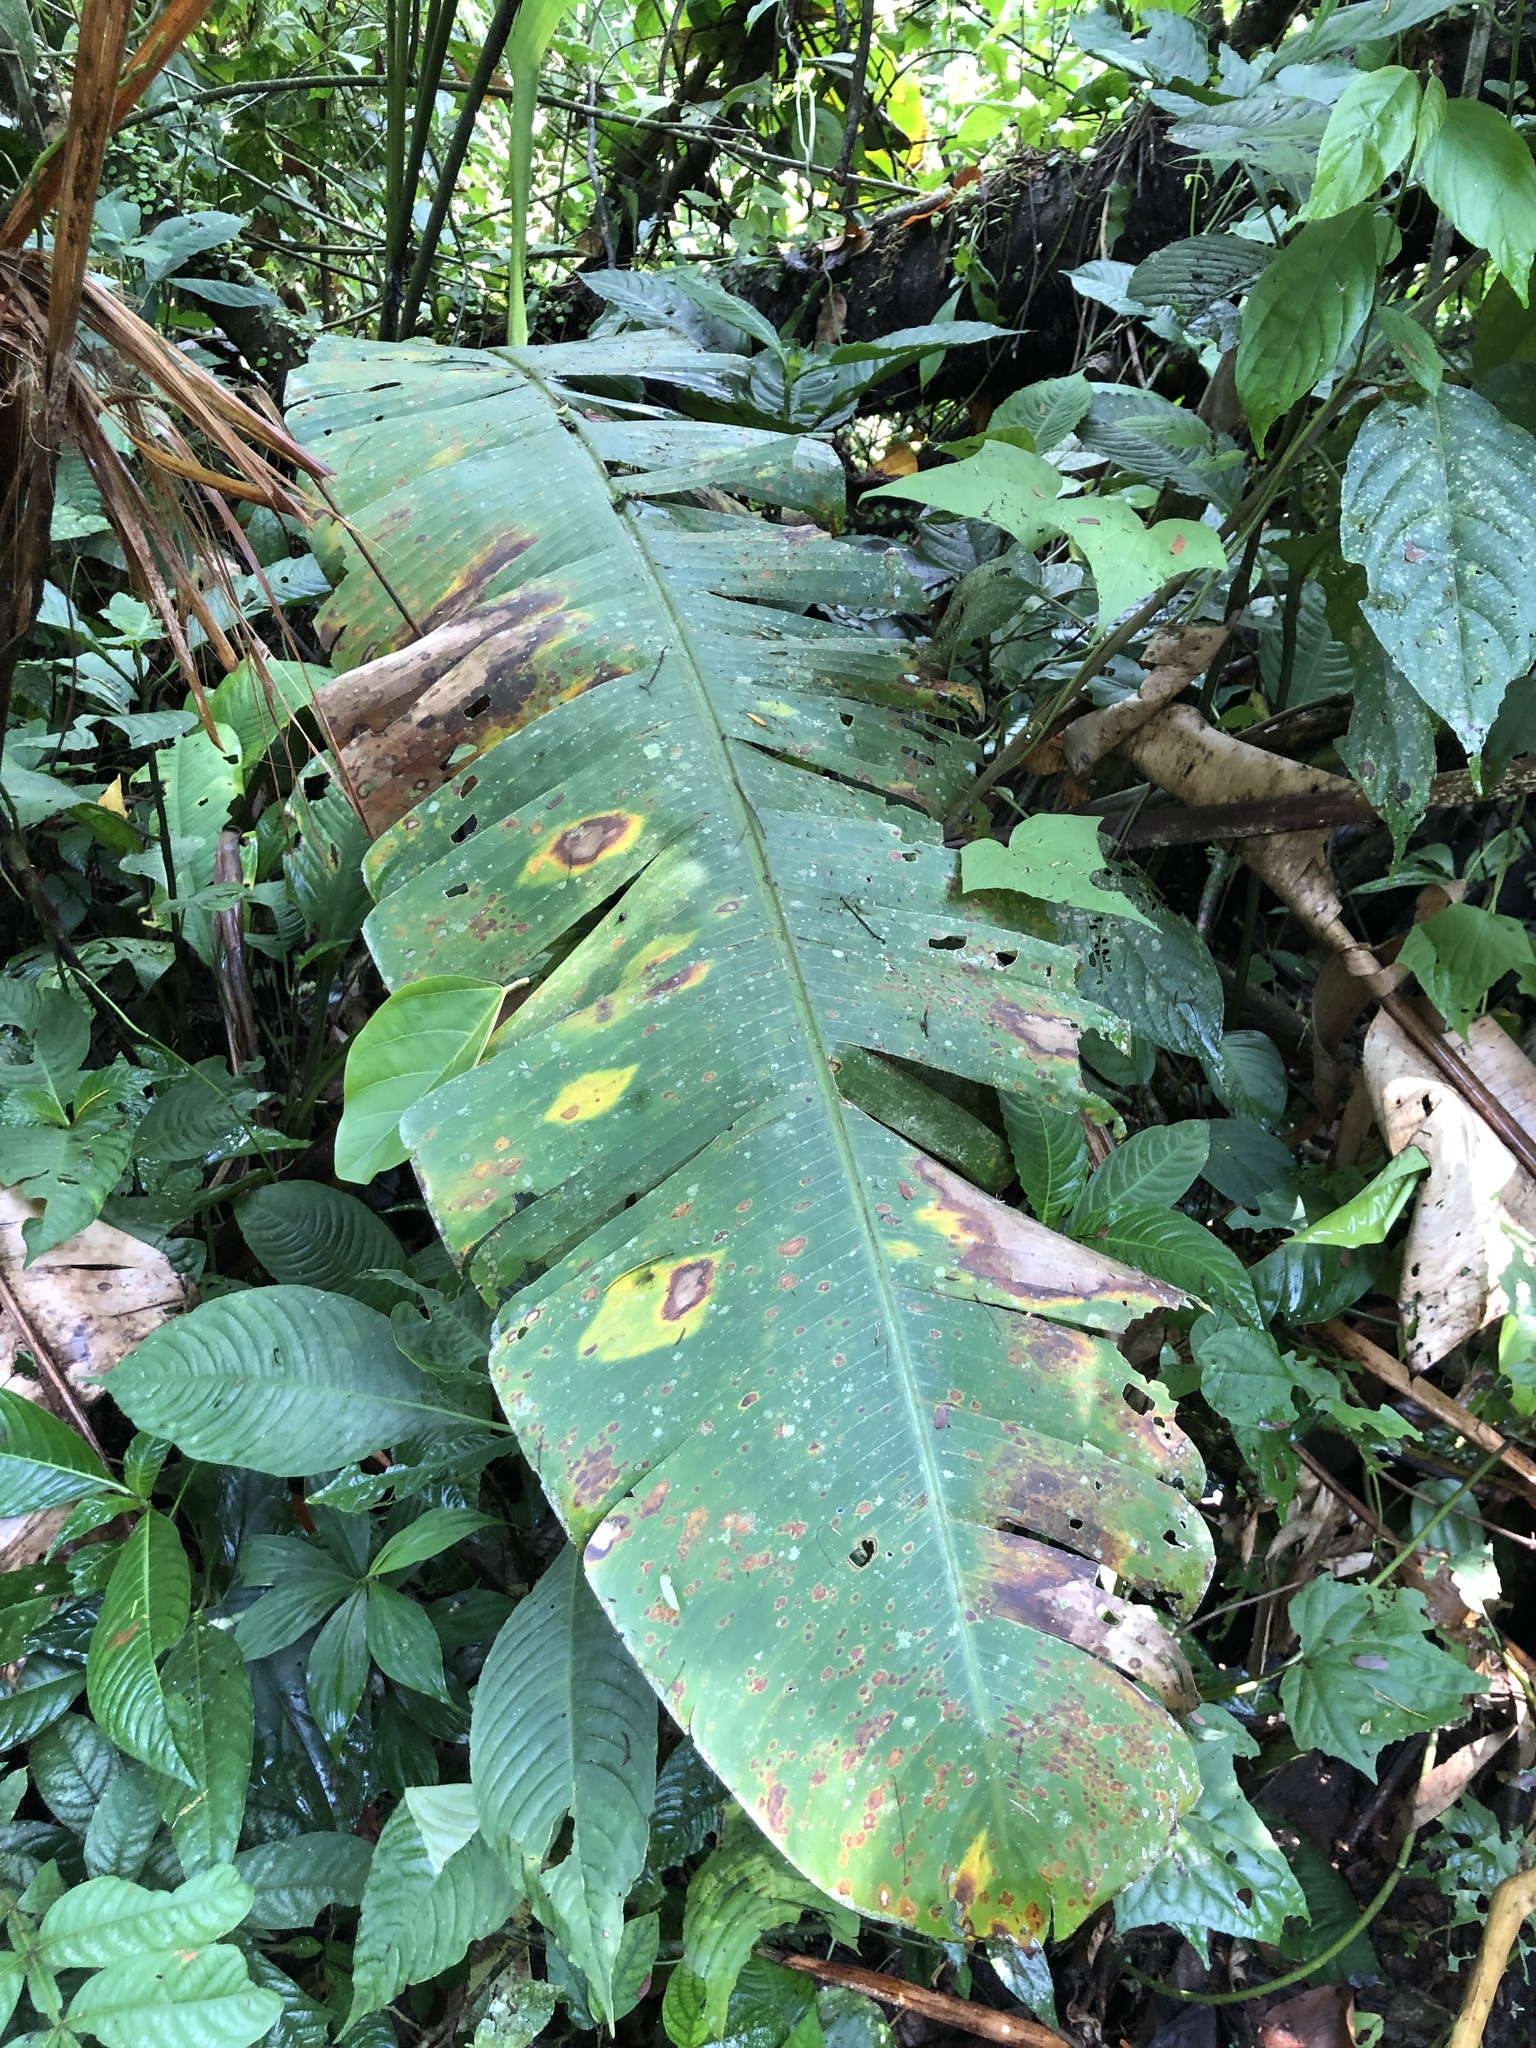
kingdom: Plantae
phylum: Tracheophyta
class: Liliopsida
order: Zingiberales
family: Heliconiaceae
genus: Heliconia
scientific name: Heliconia episcopalis
